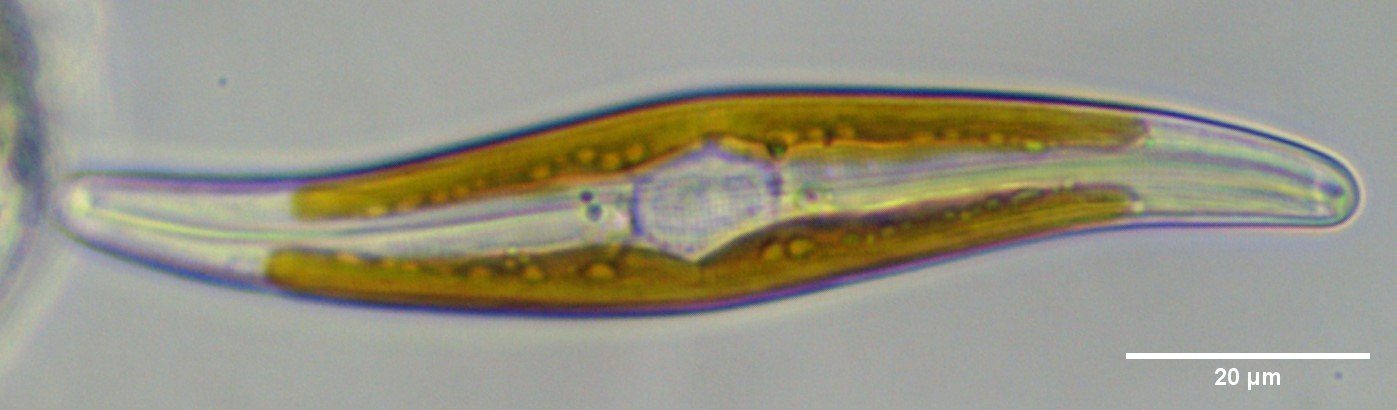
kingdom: Chromista
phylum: Ochrophyta
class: Bacillariophyceae
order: Naviculales
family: Pleurosigmataceae
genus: Gyrosigma
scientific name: Gyrosigma acuminatum
